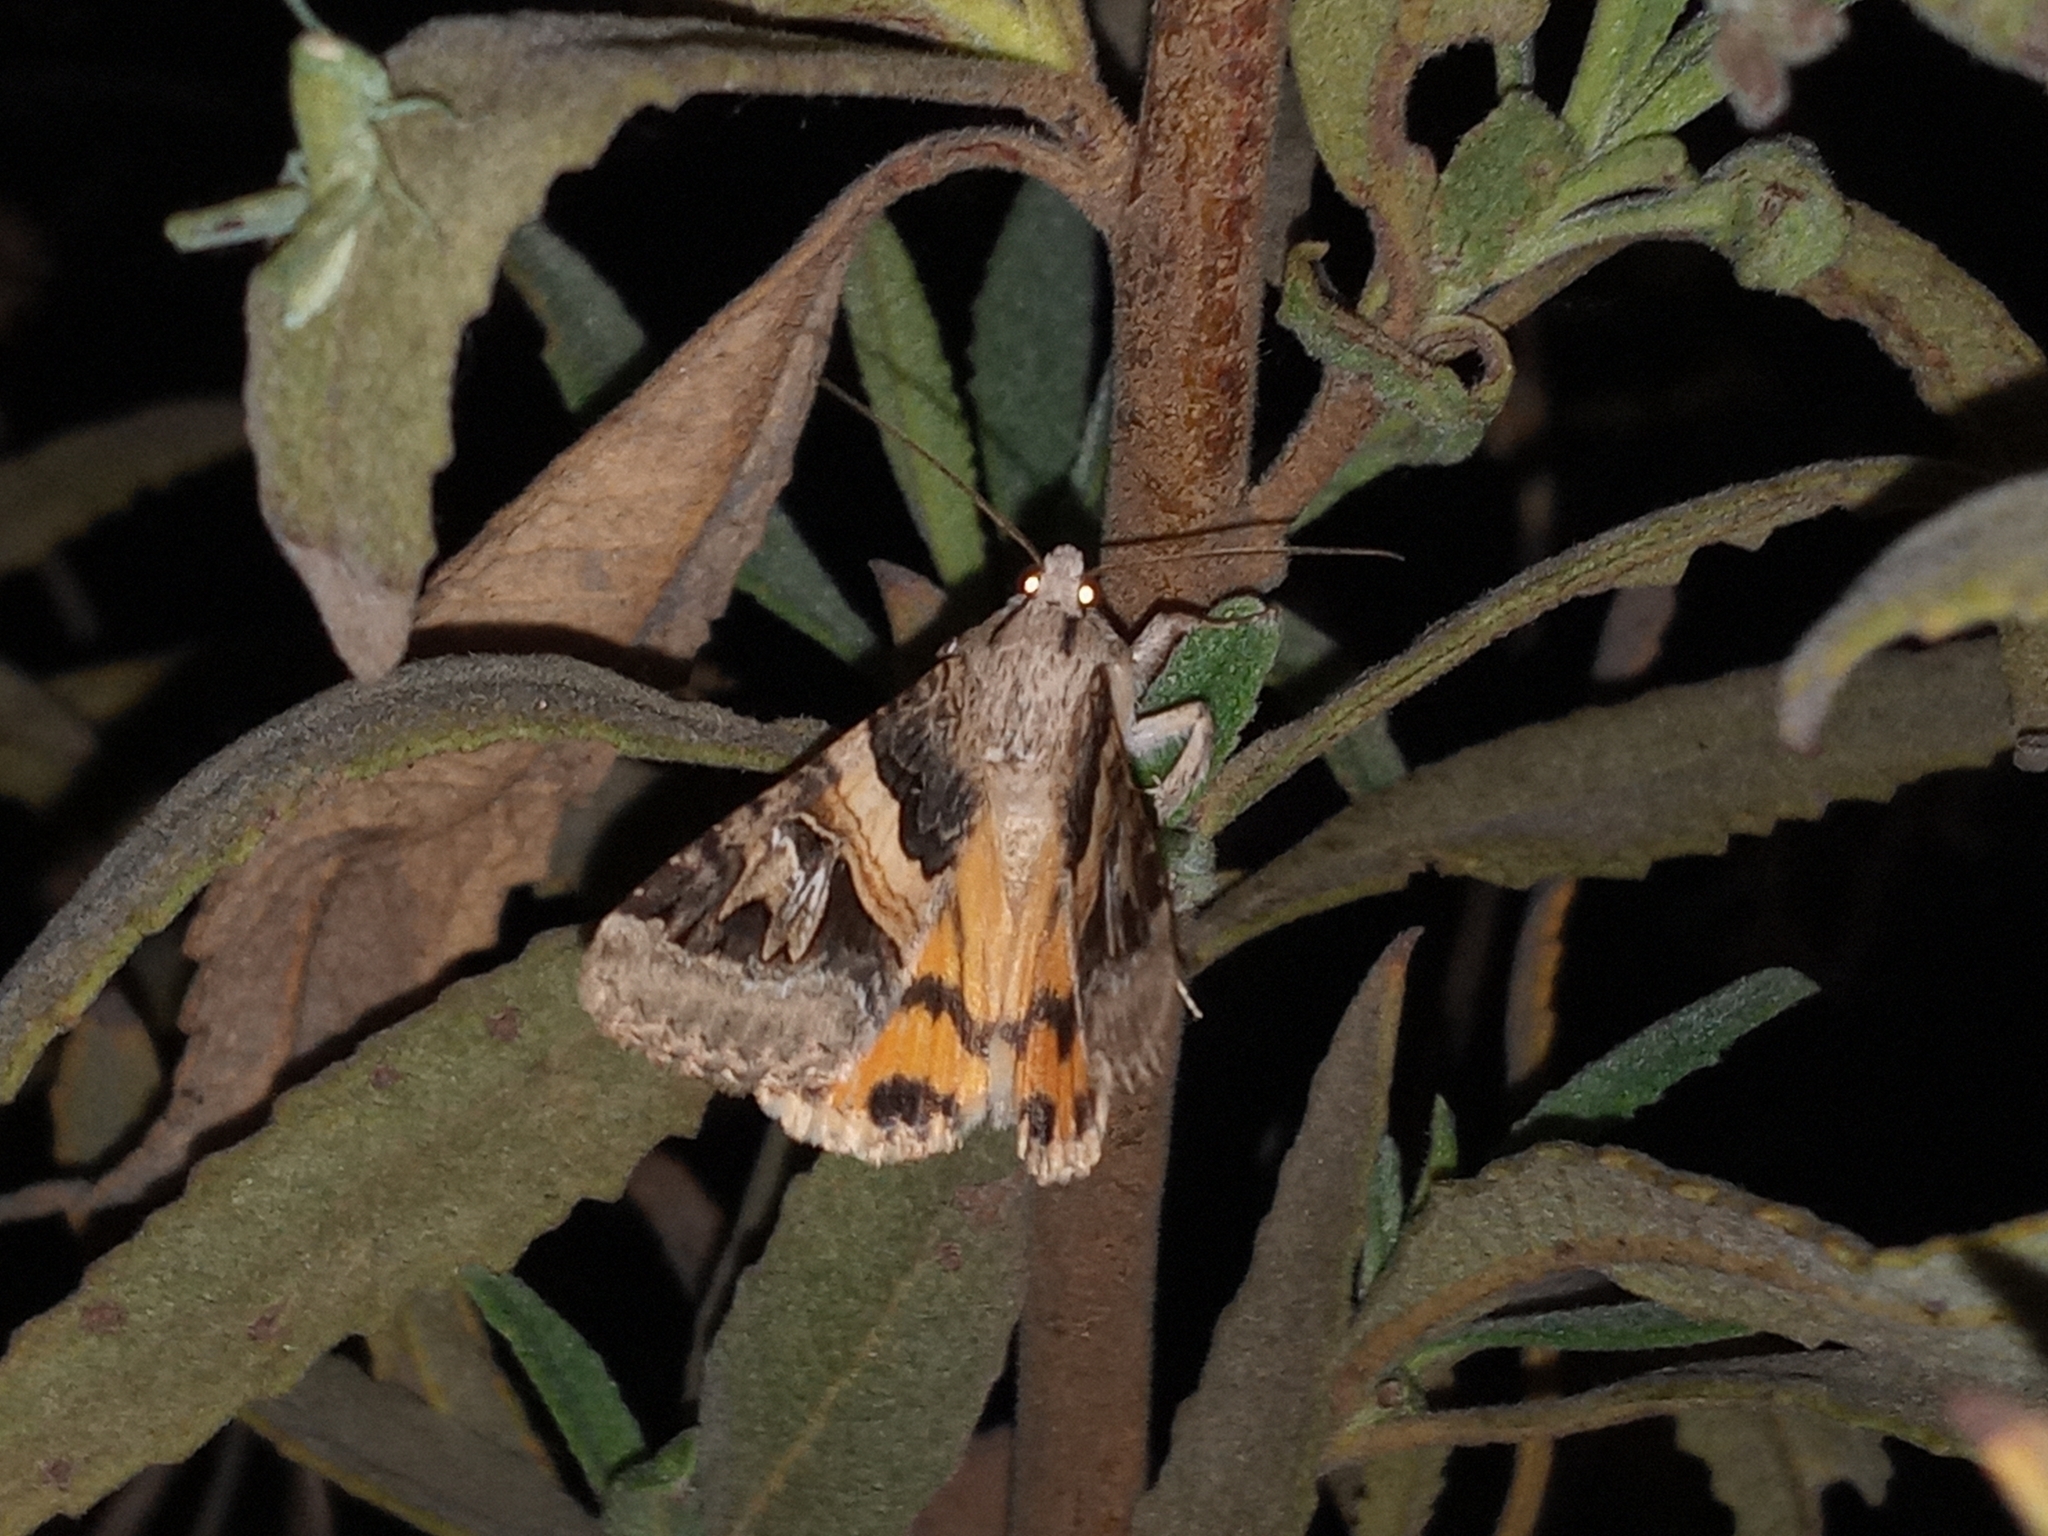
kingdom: Animalia
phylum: Arthropoda
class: Insecta
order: Lepidoptera
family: Erebidae
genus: Drasteria
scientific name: Drasteria divergens
